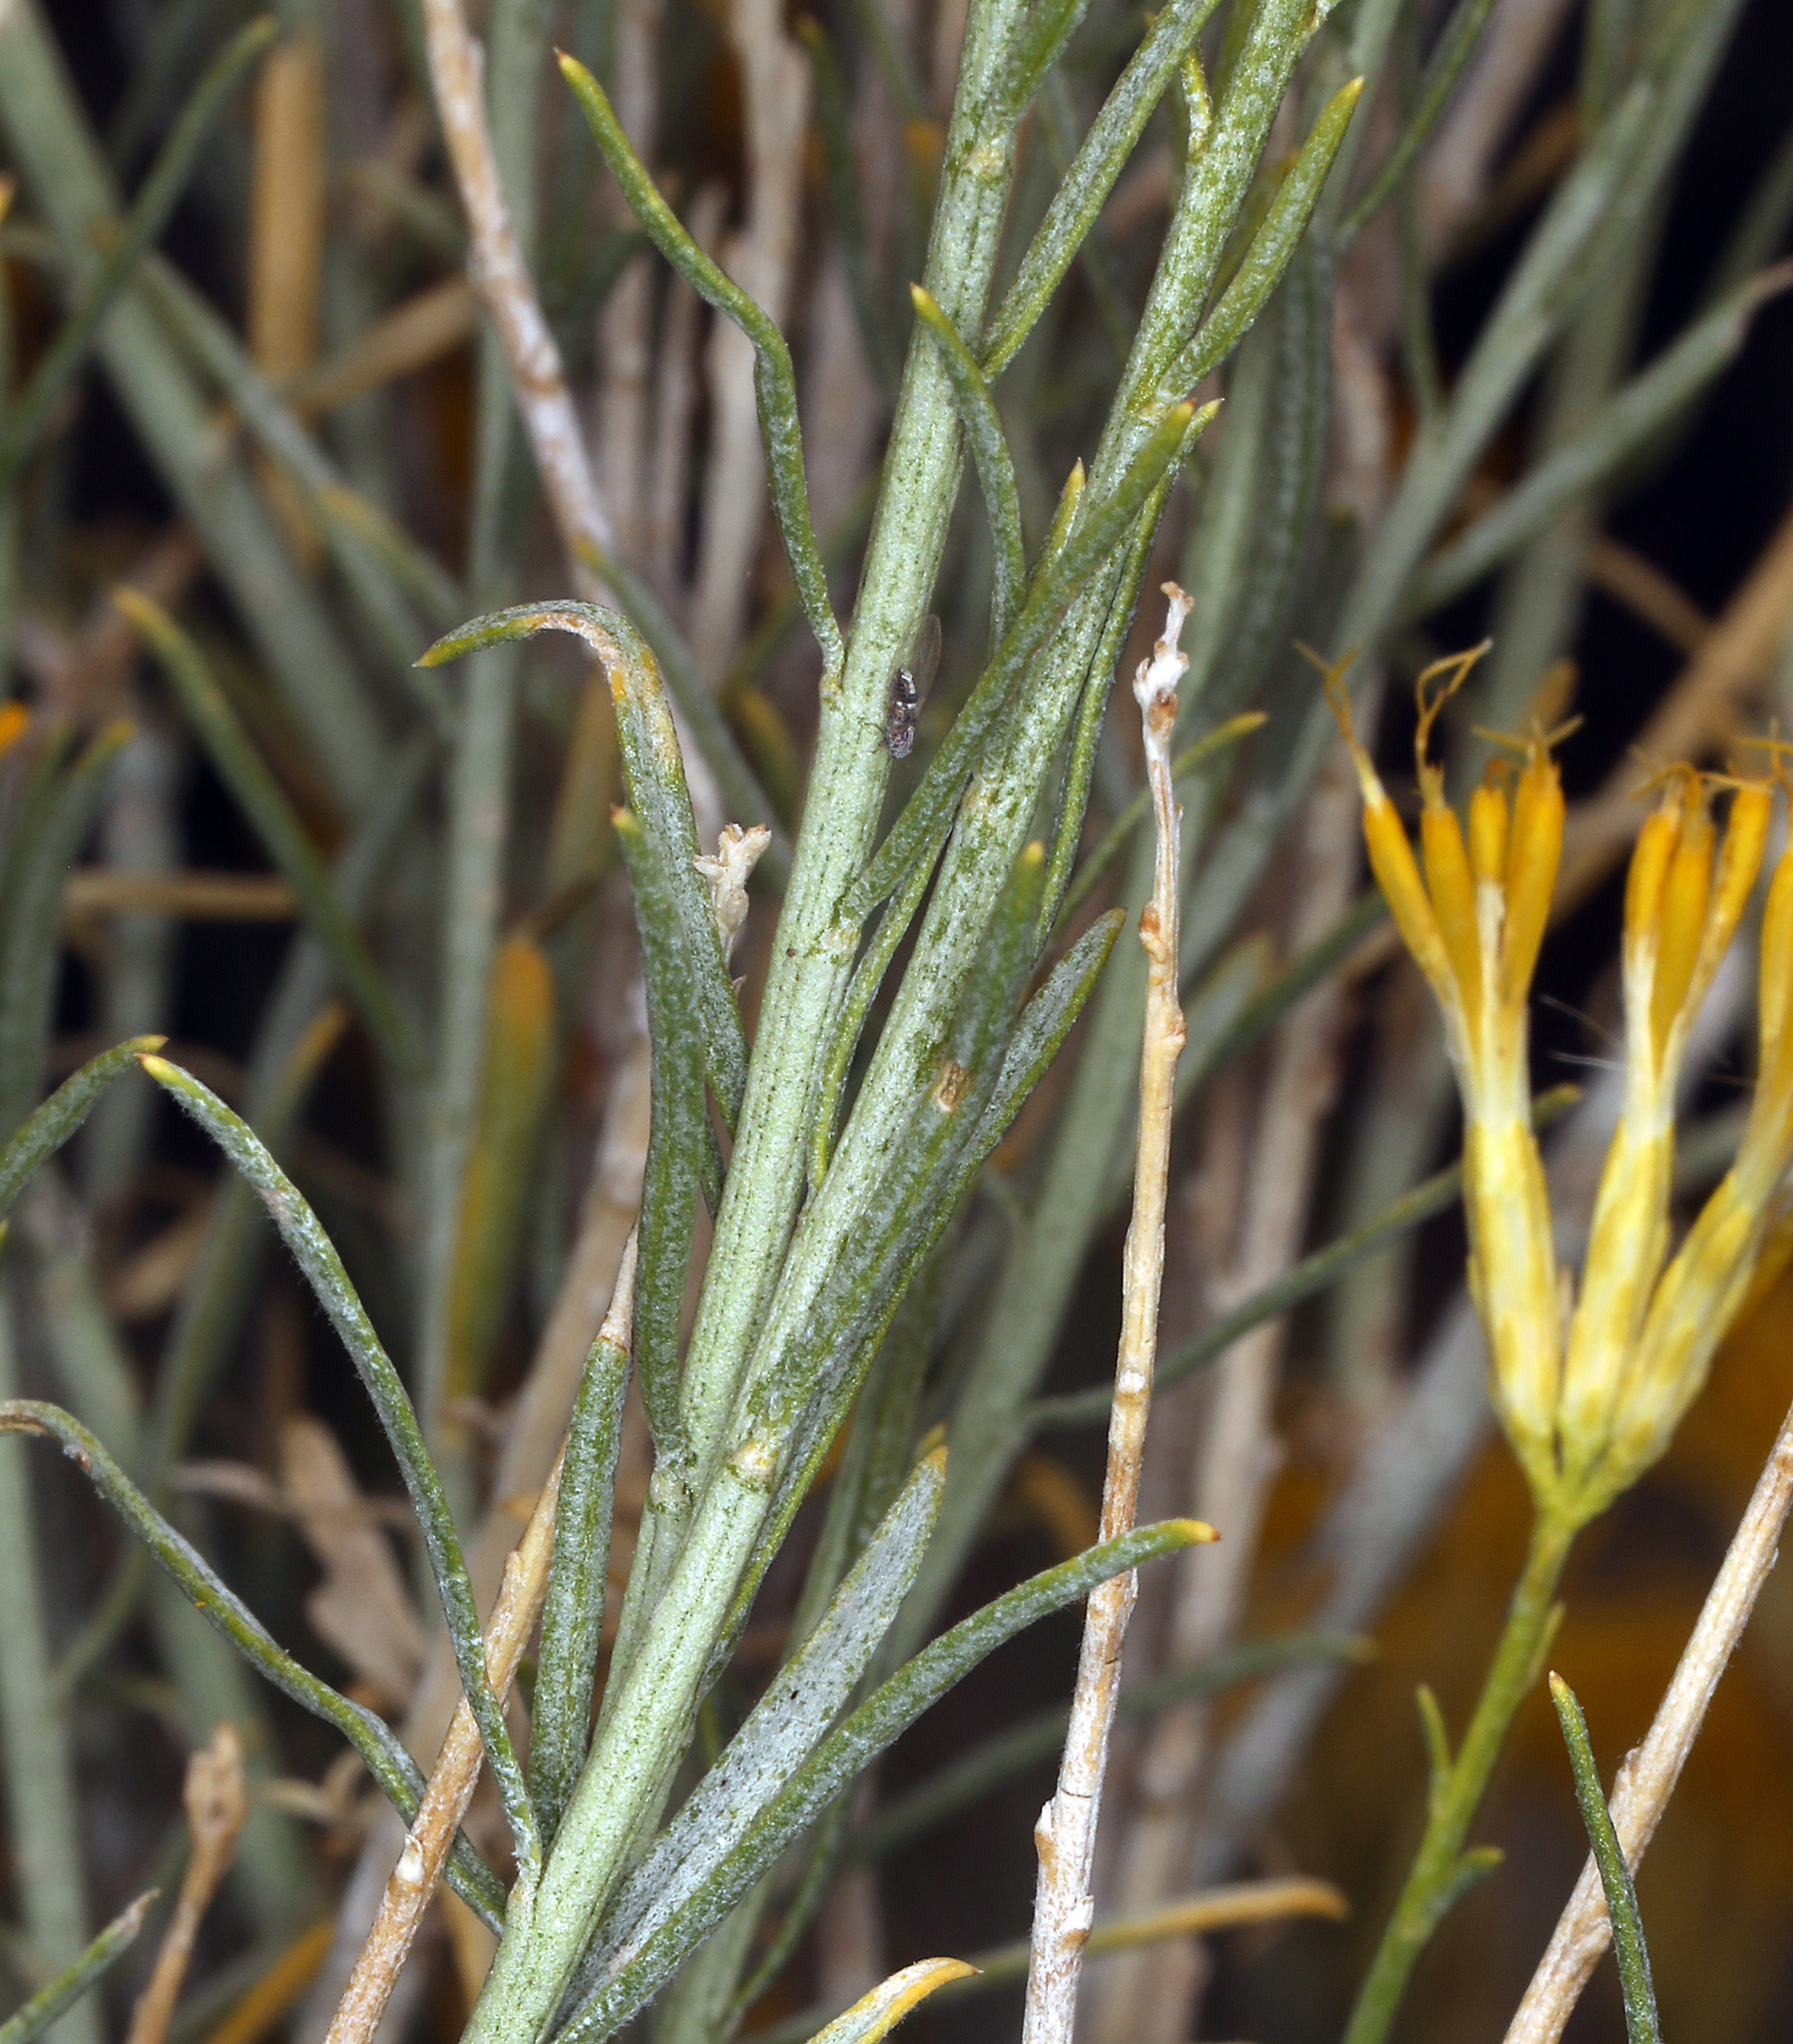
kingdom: Plantae
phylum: Tracheophyta
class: Magnoliopsida
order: Asterales
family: Asteraceae
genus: Ericameria
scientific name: Ericameria nauseosa
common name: Rubber rabbitbrush
